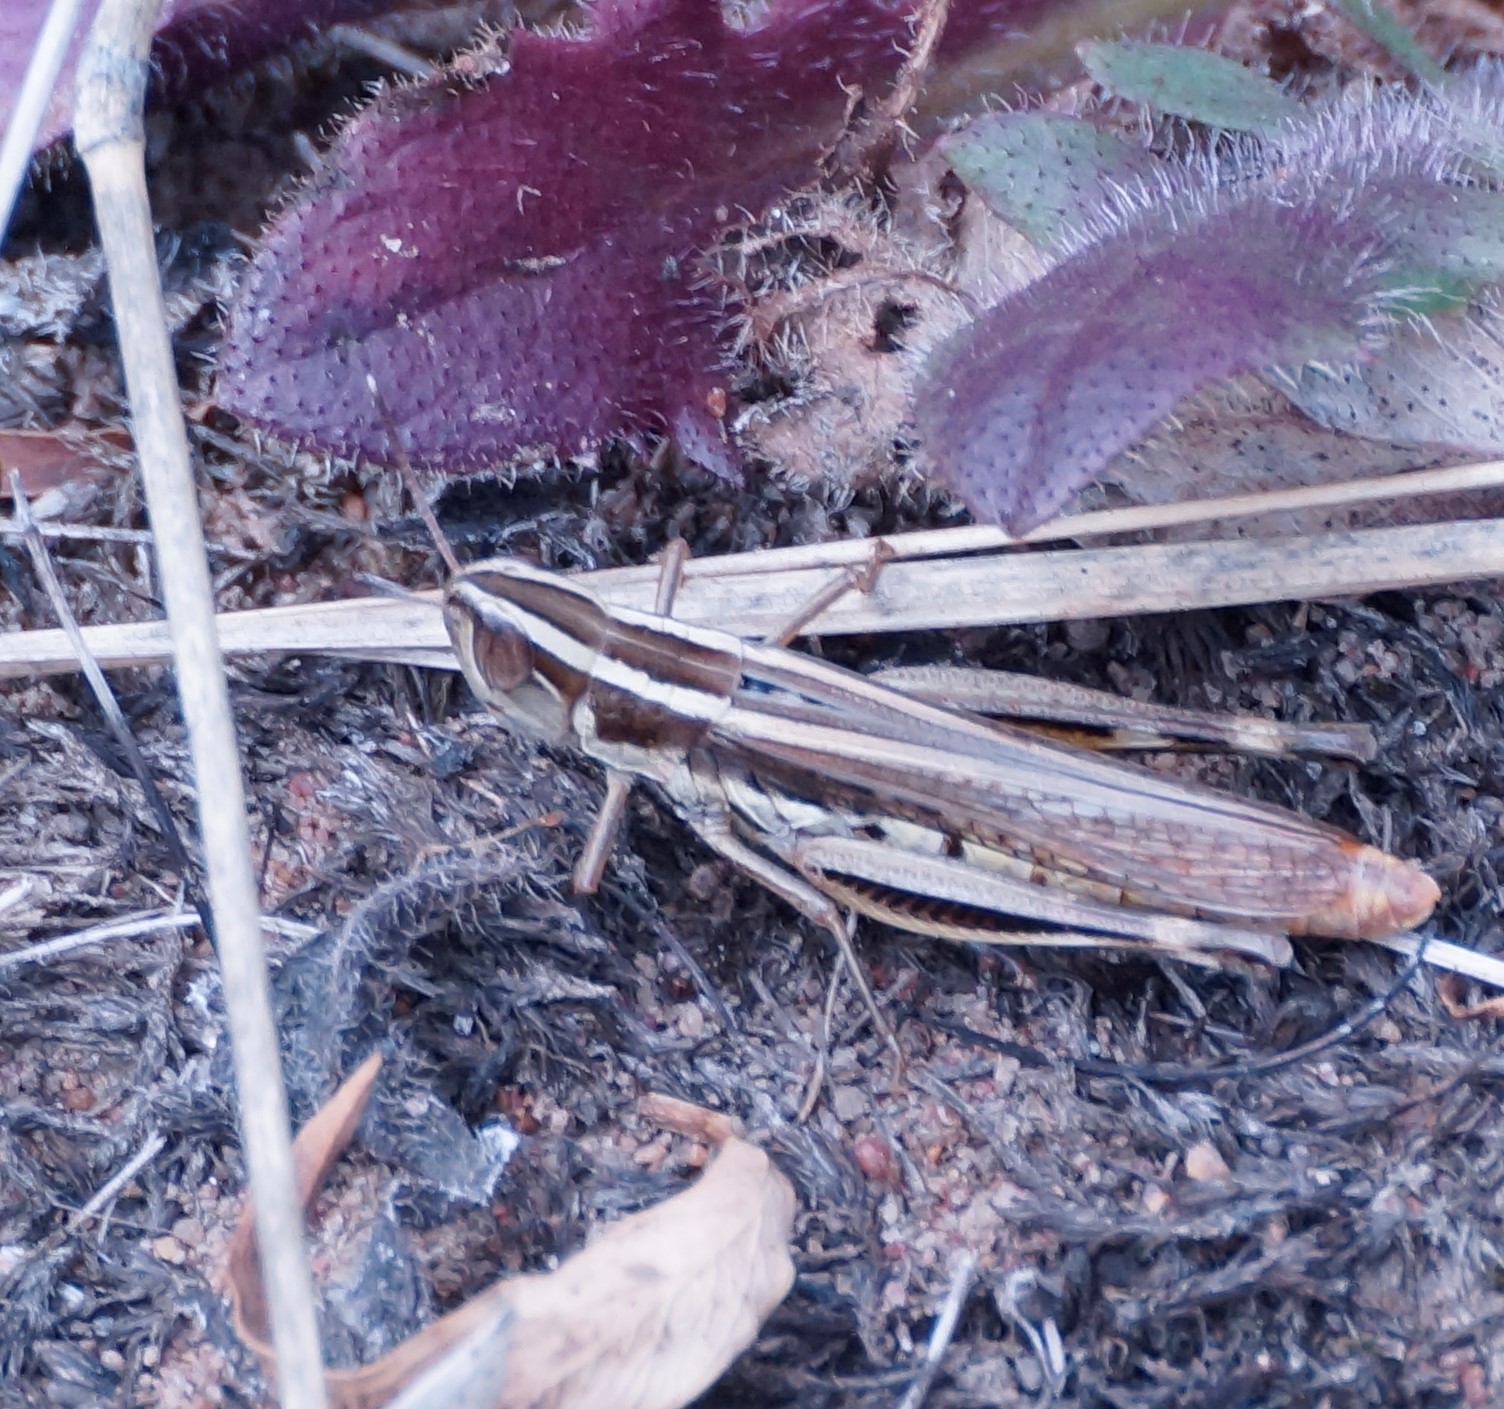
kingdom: Animalia
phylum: Arthropoda
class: Insecta
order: Orthoptera
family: Acrididae
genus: Macrotona
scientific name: Macrotona securiformis
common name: Inland macrotona
